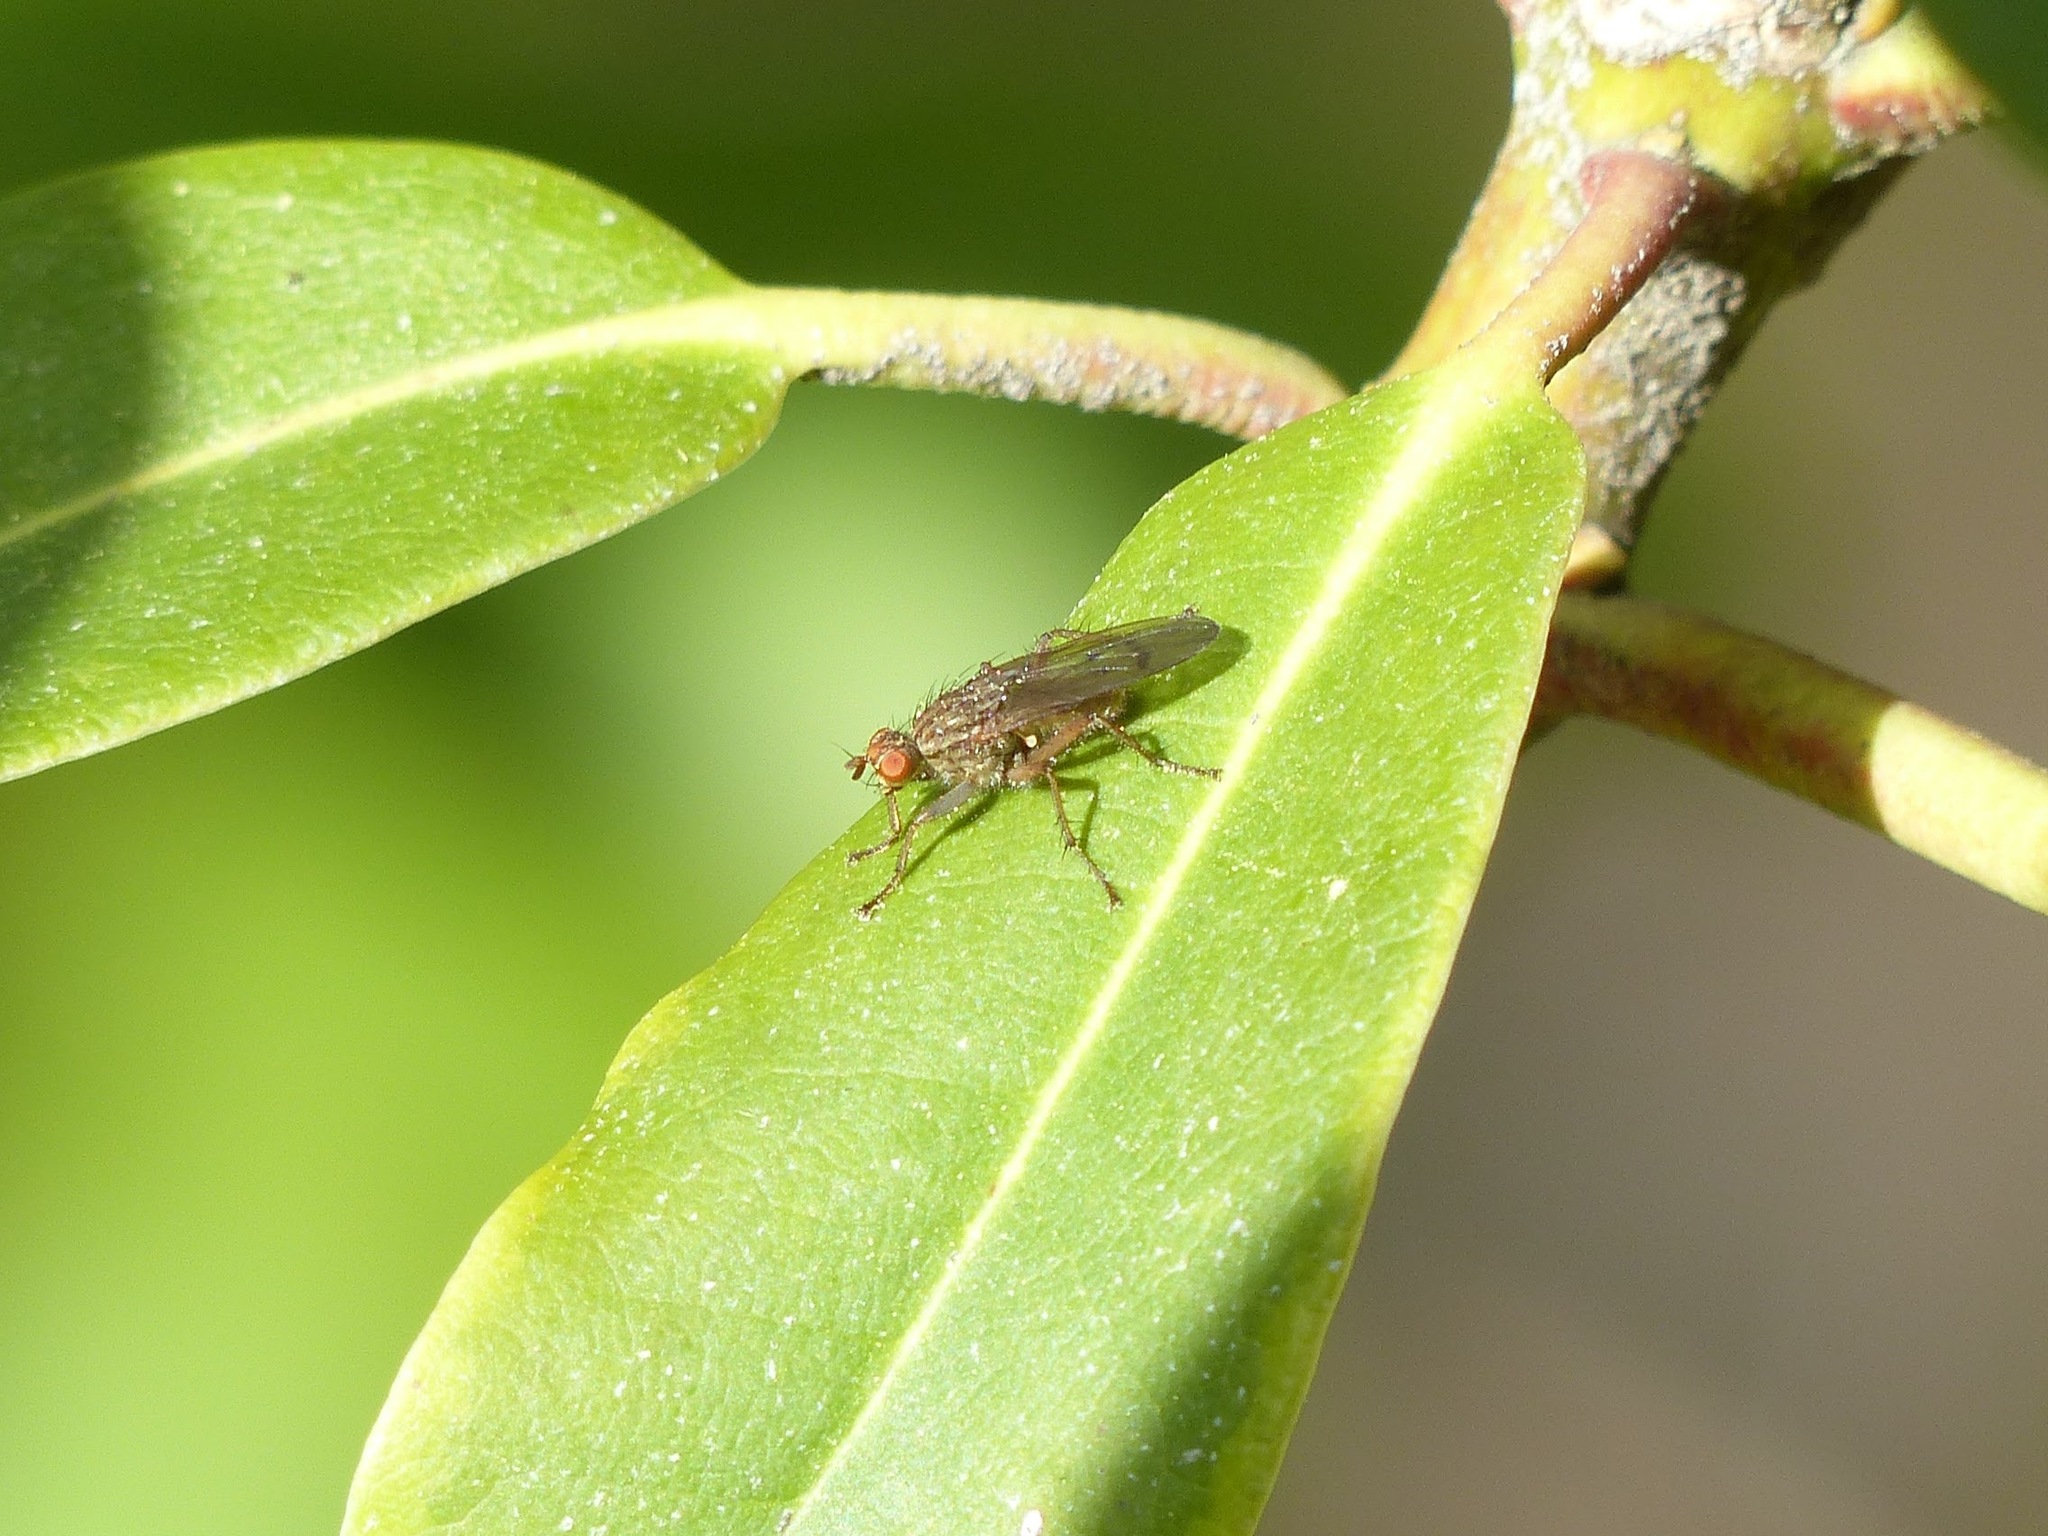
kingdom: Animalia
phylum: Arthropoda
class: Insecta
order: Diptera
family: Scathophagidae
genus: Scathophaga
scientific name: Scathophaga stercoraria
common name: Yellow dung fly
